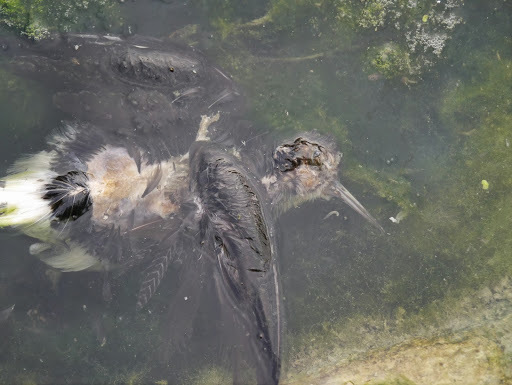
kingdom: Animalia
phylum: Chordata
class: Aves
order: Charadriiformes
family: Scolopacidae
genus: Tringa
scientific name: Tringa ochropus
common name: Green sandpiper
